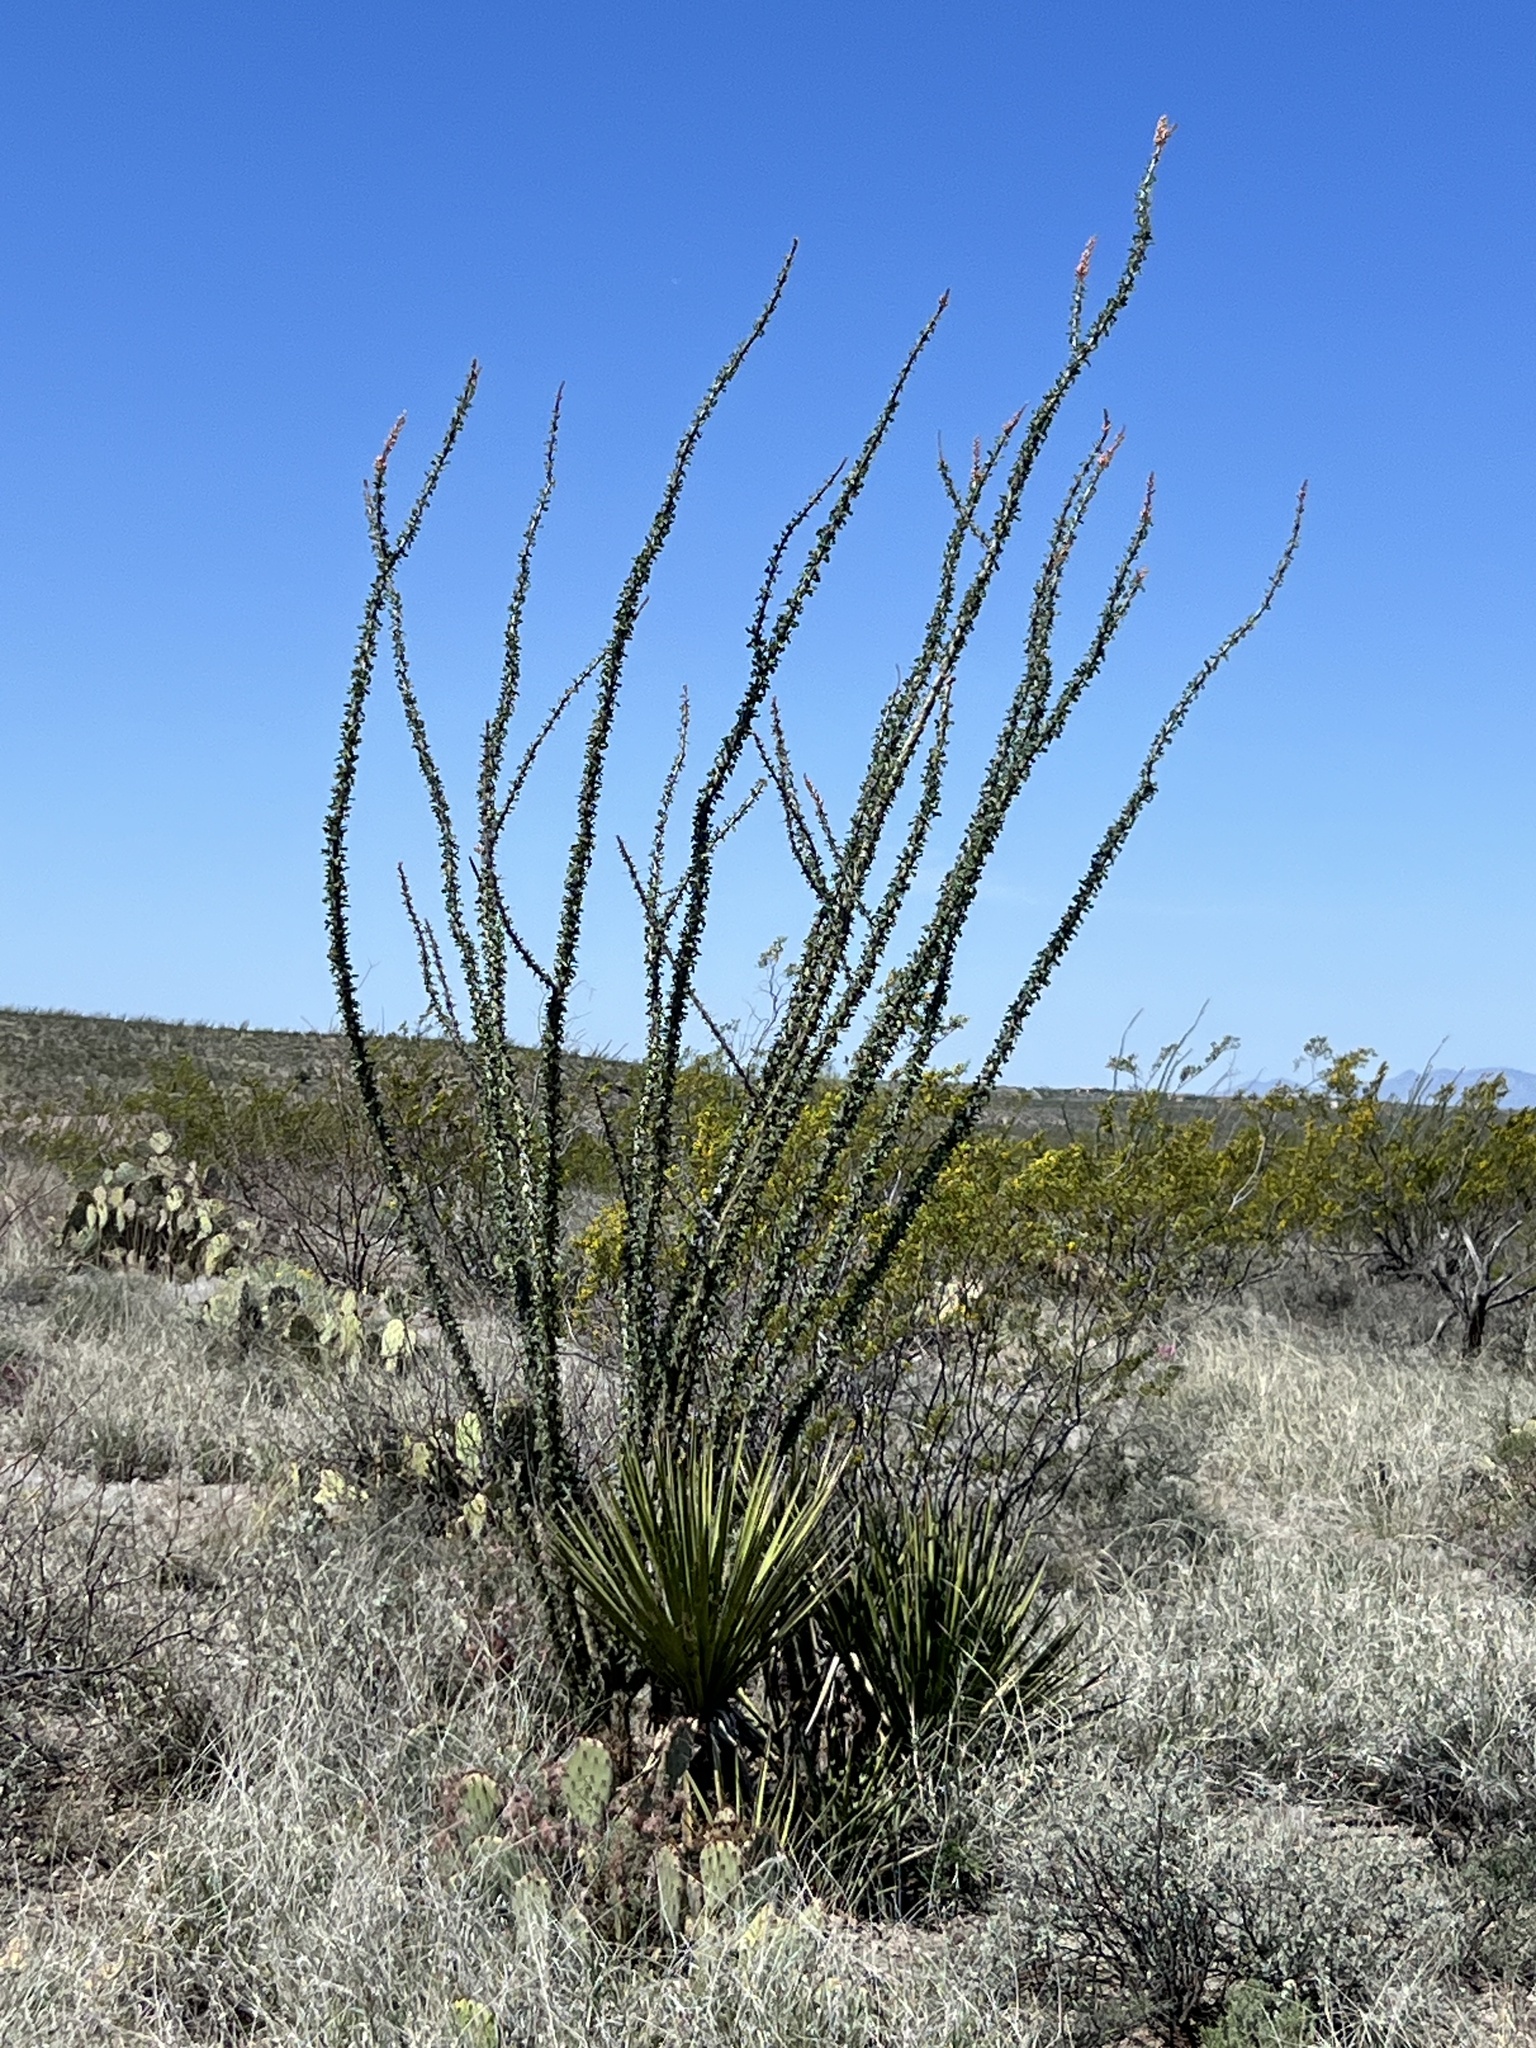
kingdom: Plantae
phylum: Tracheophyta
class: Magnoliopsida
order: Ericales
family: Fouquieriaceae
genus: Fouquieria
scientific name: Fouquieria splendens
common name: Vine-cactus
